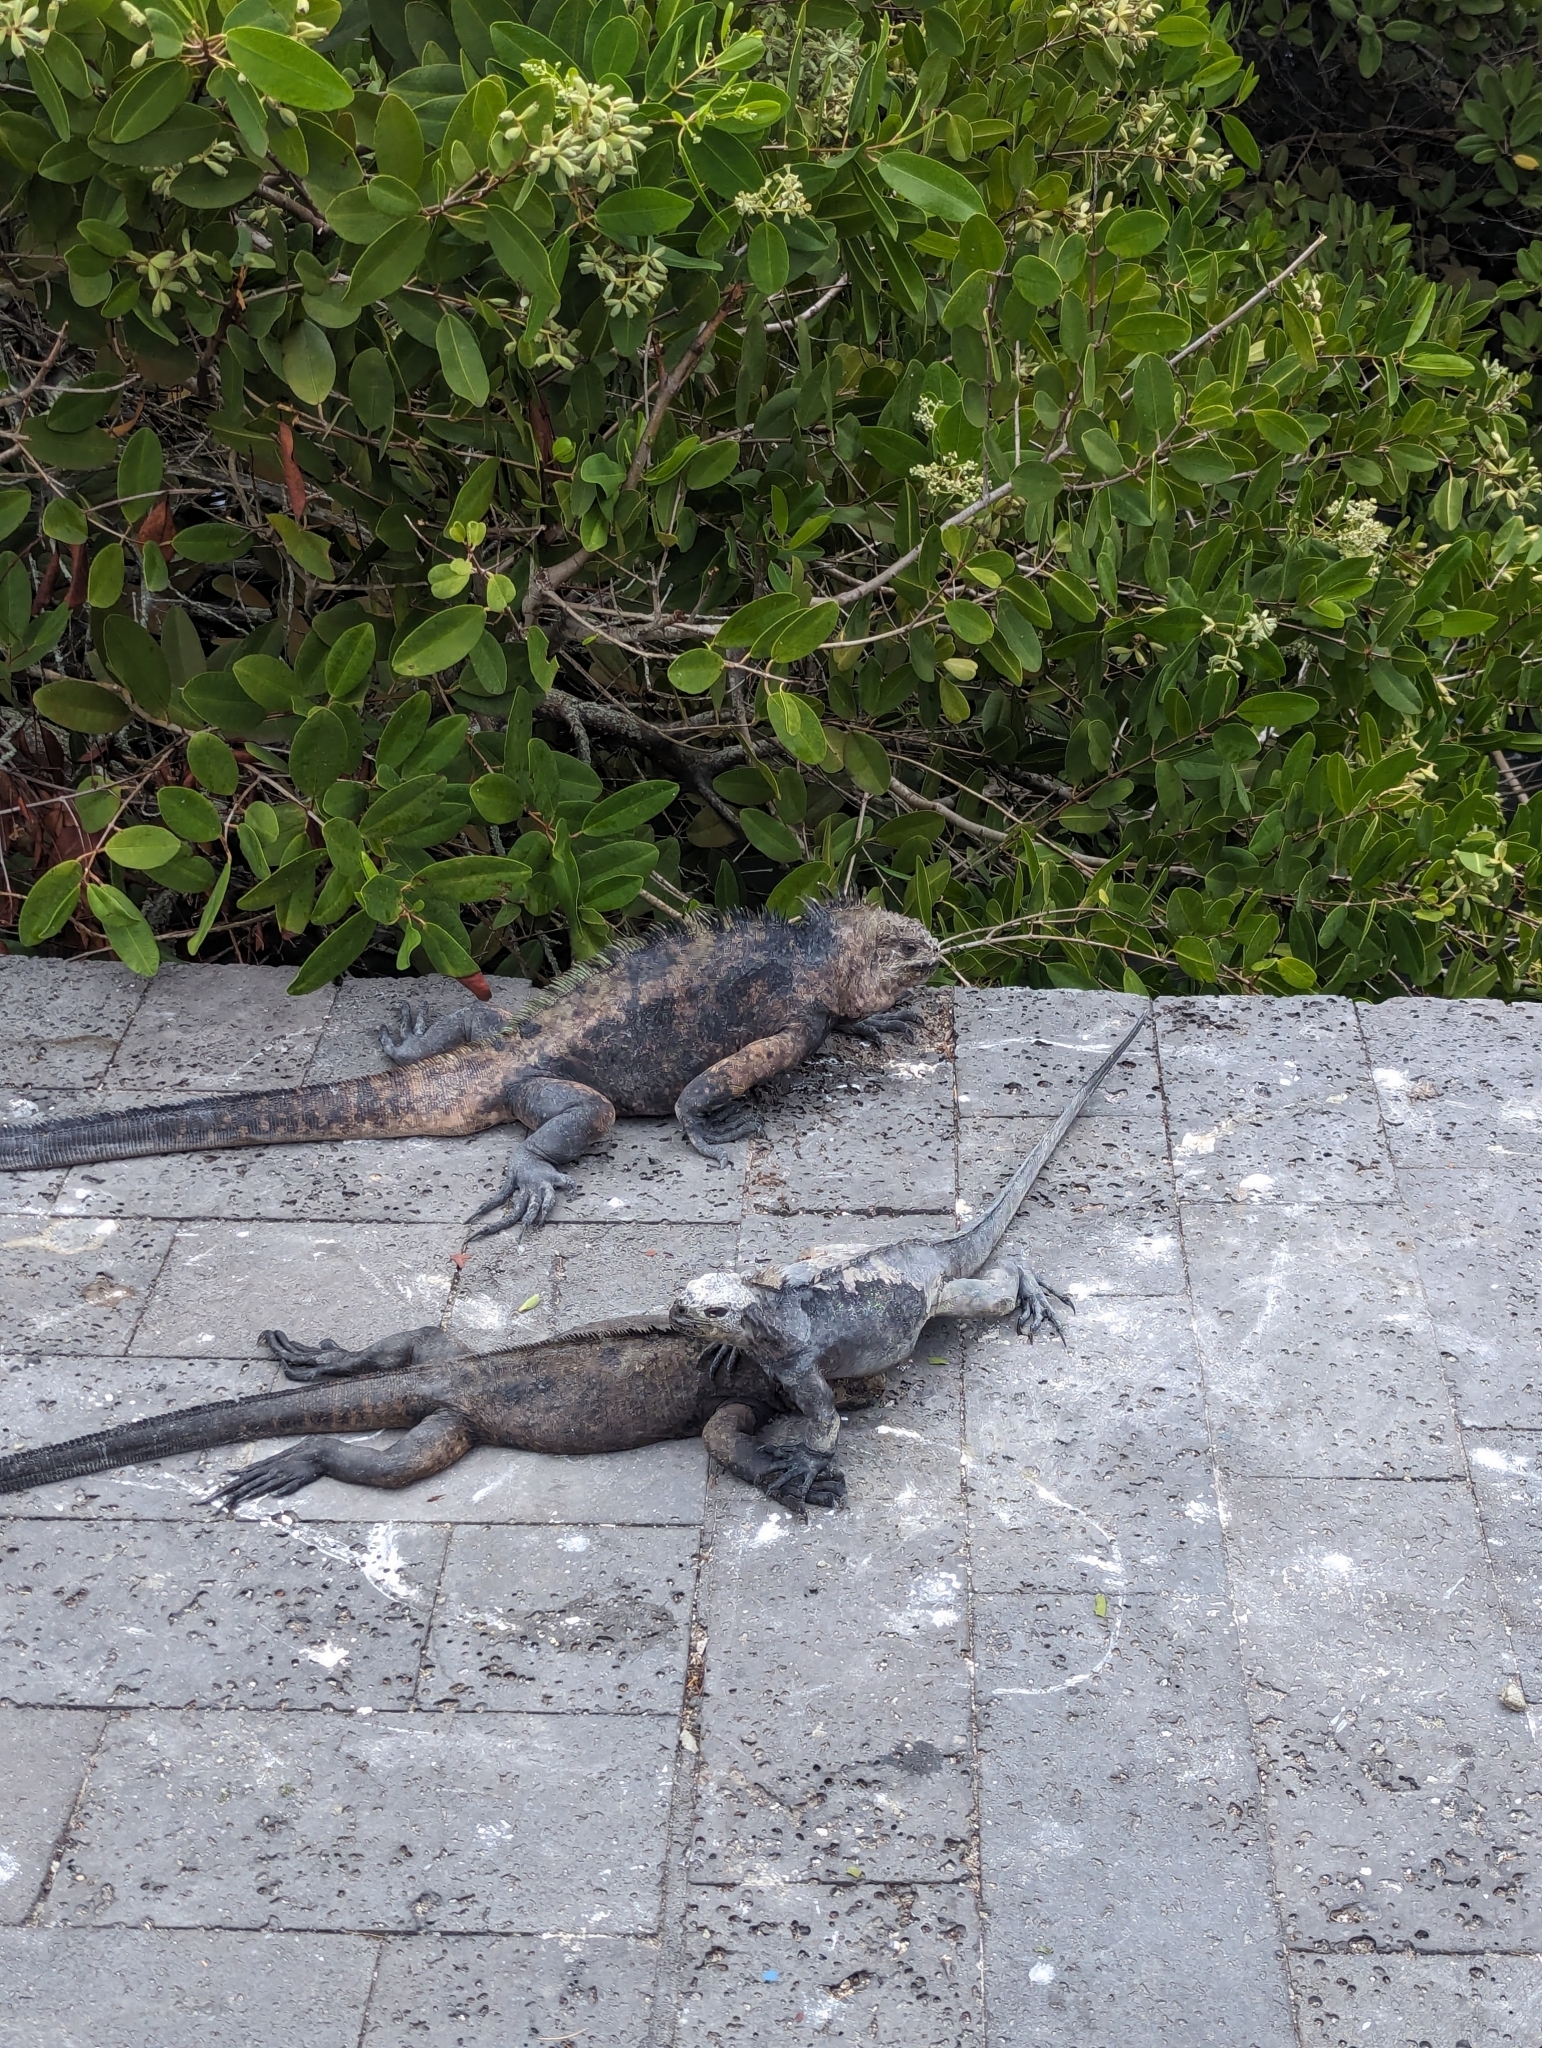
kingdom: Animalia
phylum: Chordata
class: Squamata
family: Iguanidae
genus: Amblyrhynchus
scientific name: Amblyrhynchus cristatus
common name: Marine iguana
